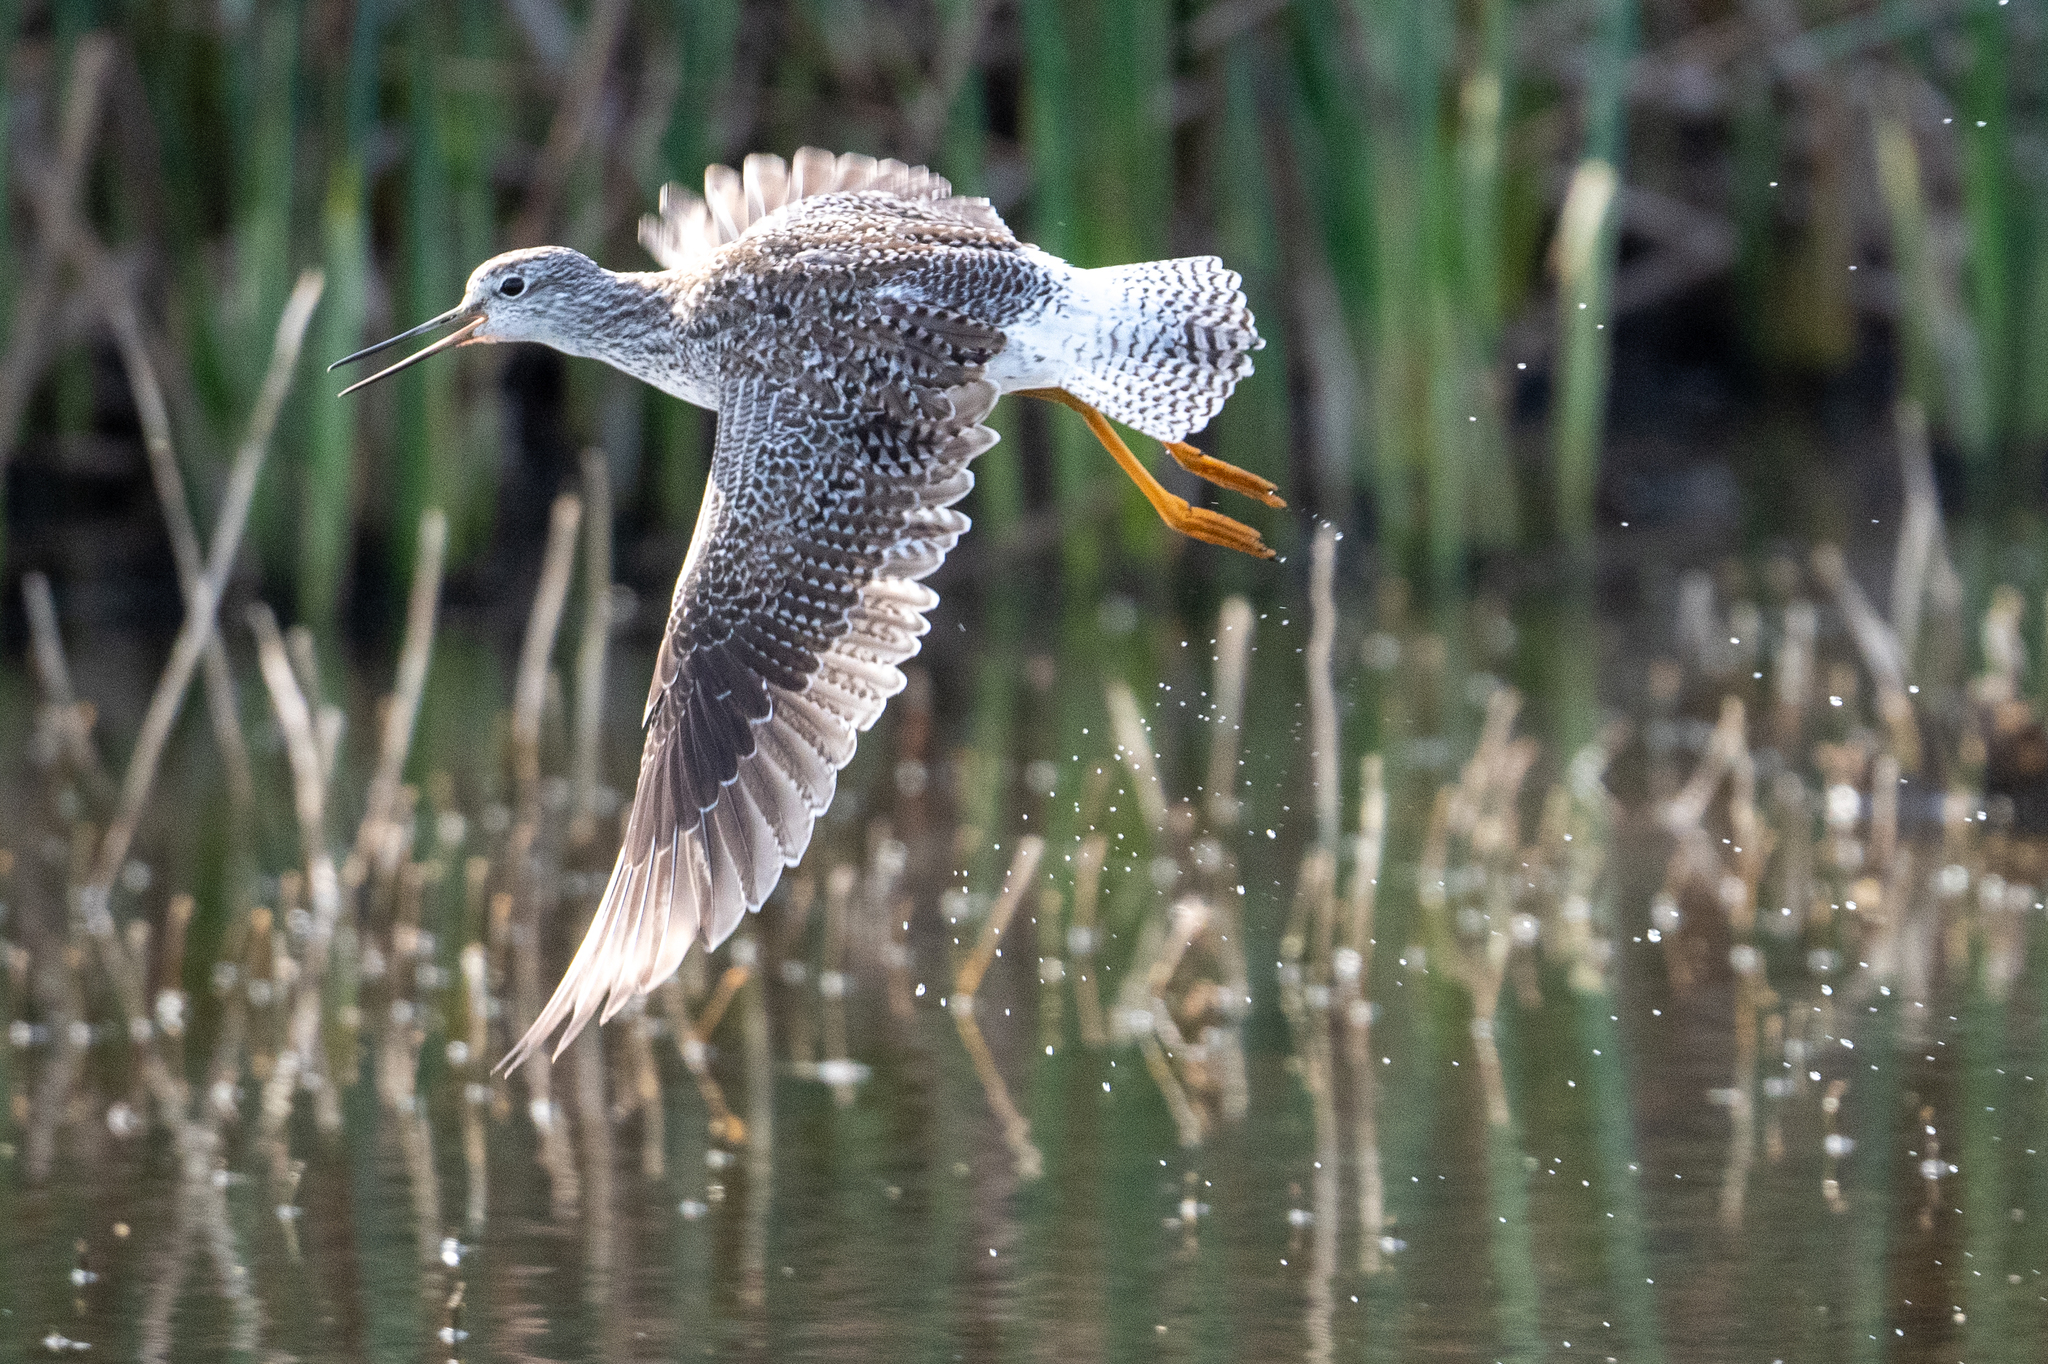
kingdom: Animalia
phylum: Chordata
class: Aves
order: Charadriiformes
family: Scolopacidae
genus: Tringa
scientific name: Tringa melanoleuca
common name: Greater yellowlegs
